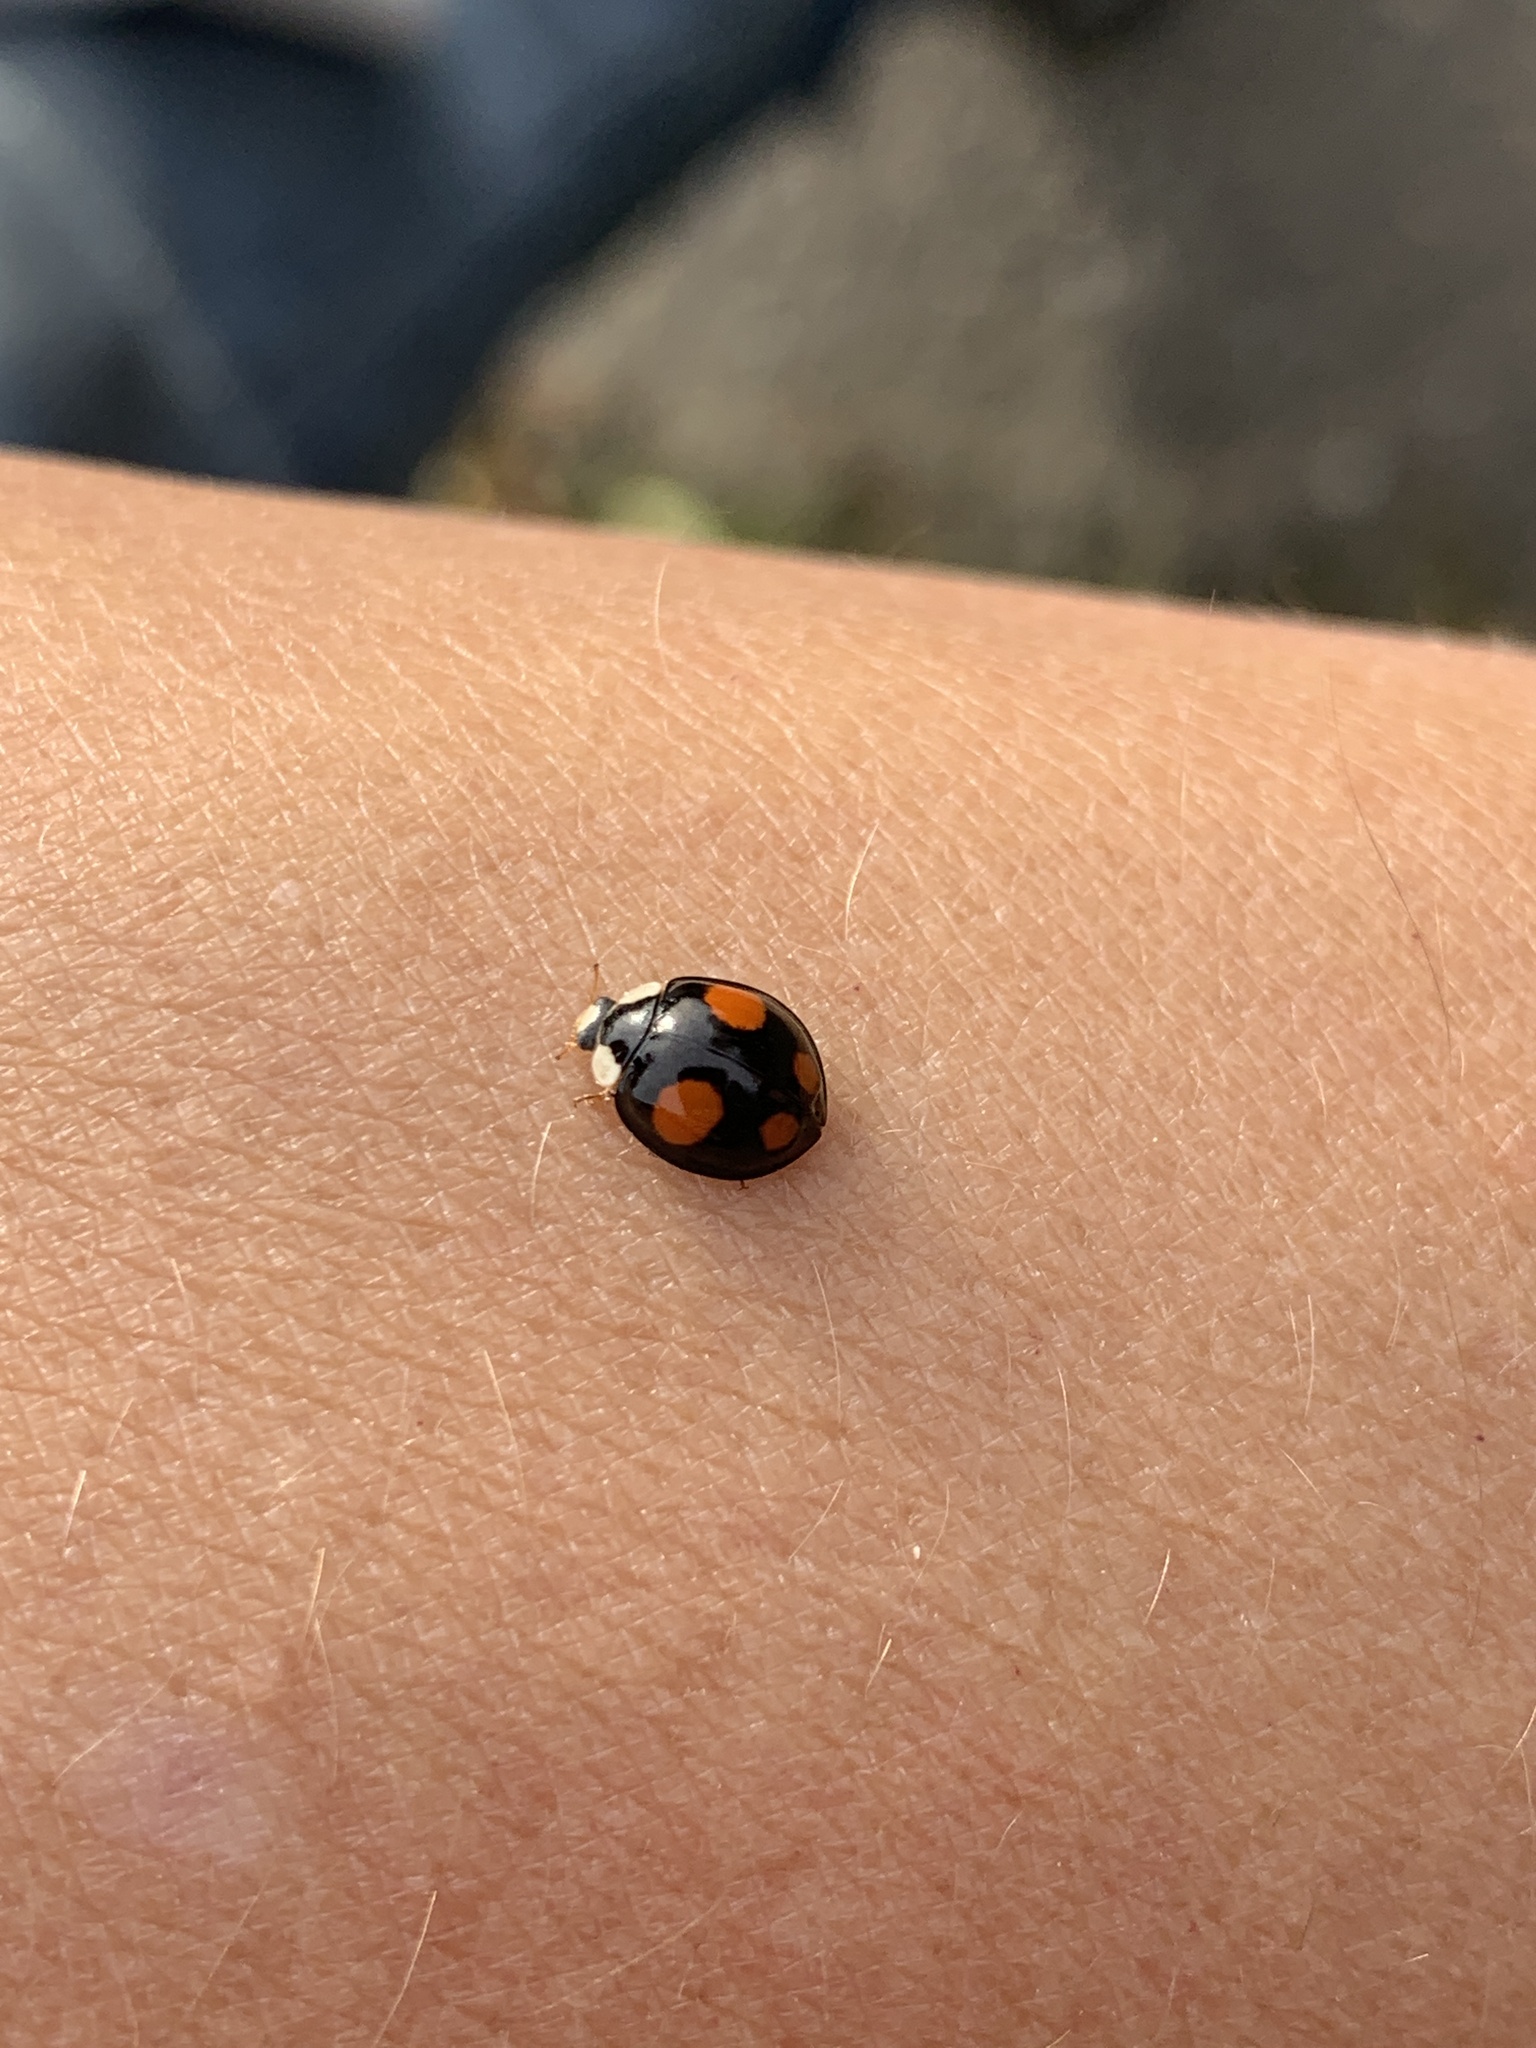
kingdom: Animalia
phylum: Arthropoda
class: Insecta
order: Coleoptera
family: Coccinellidae
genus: Harmonia
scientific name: Harmonia axyridis
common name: Harlequin ladybird
